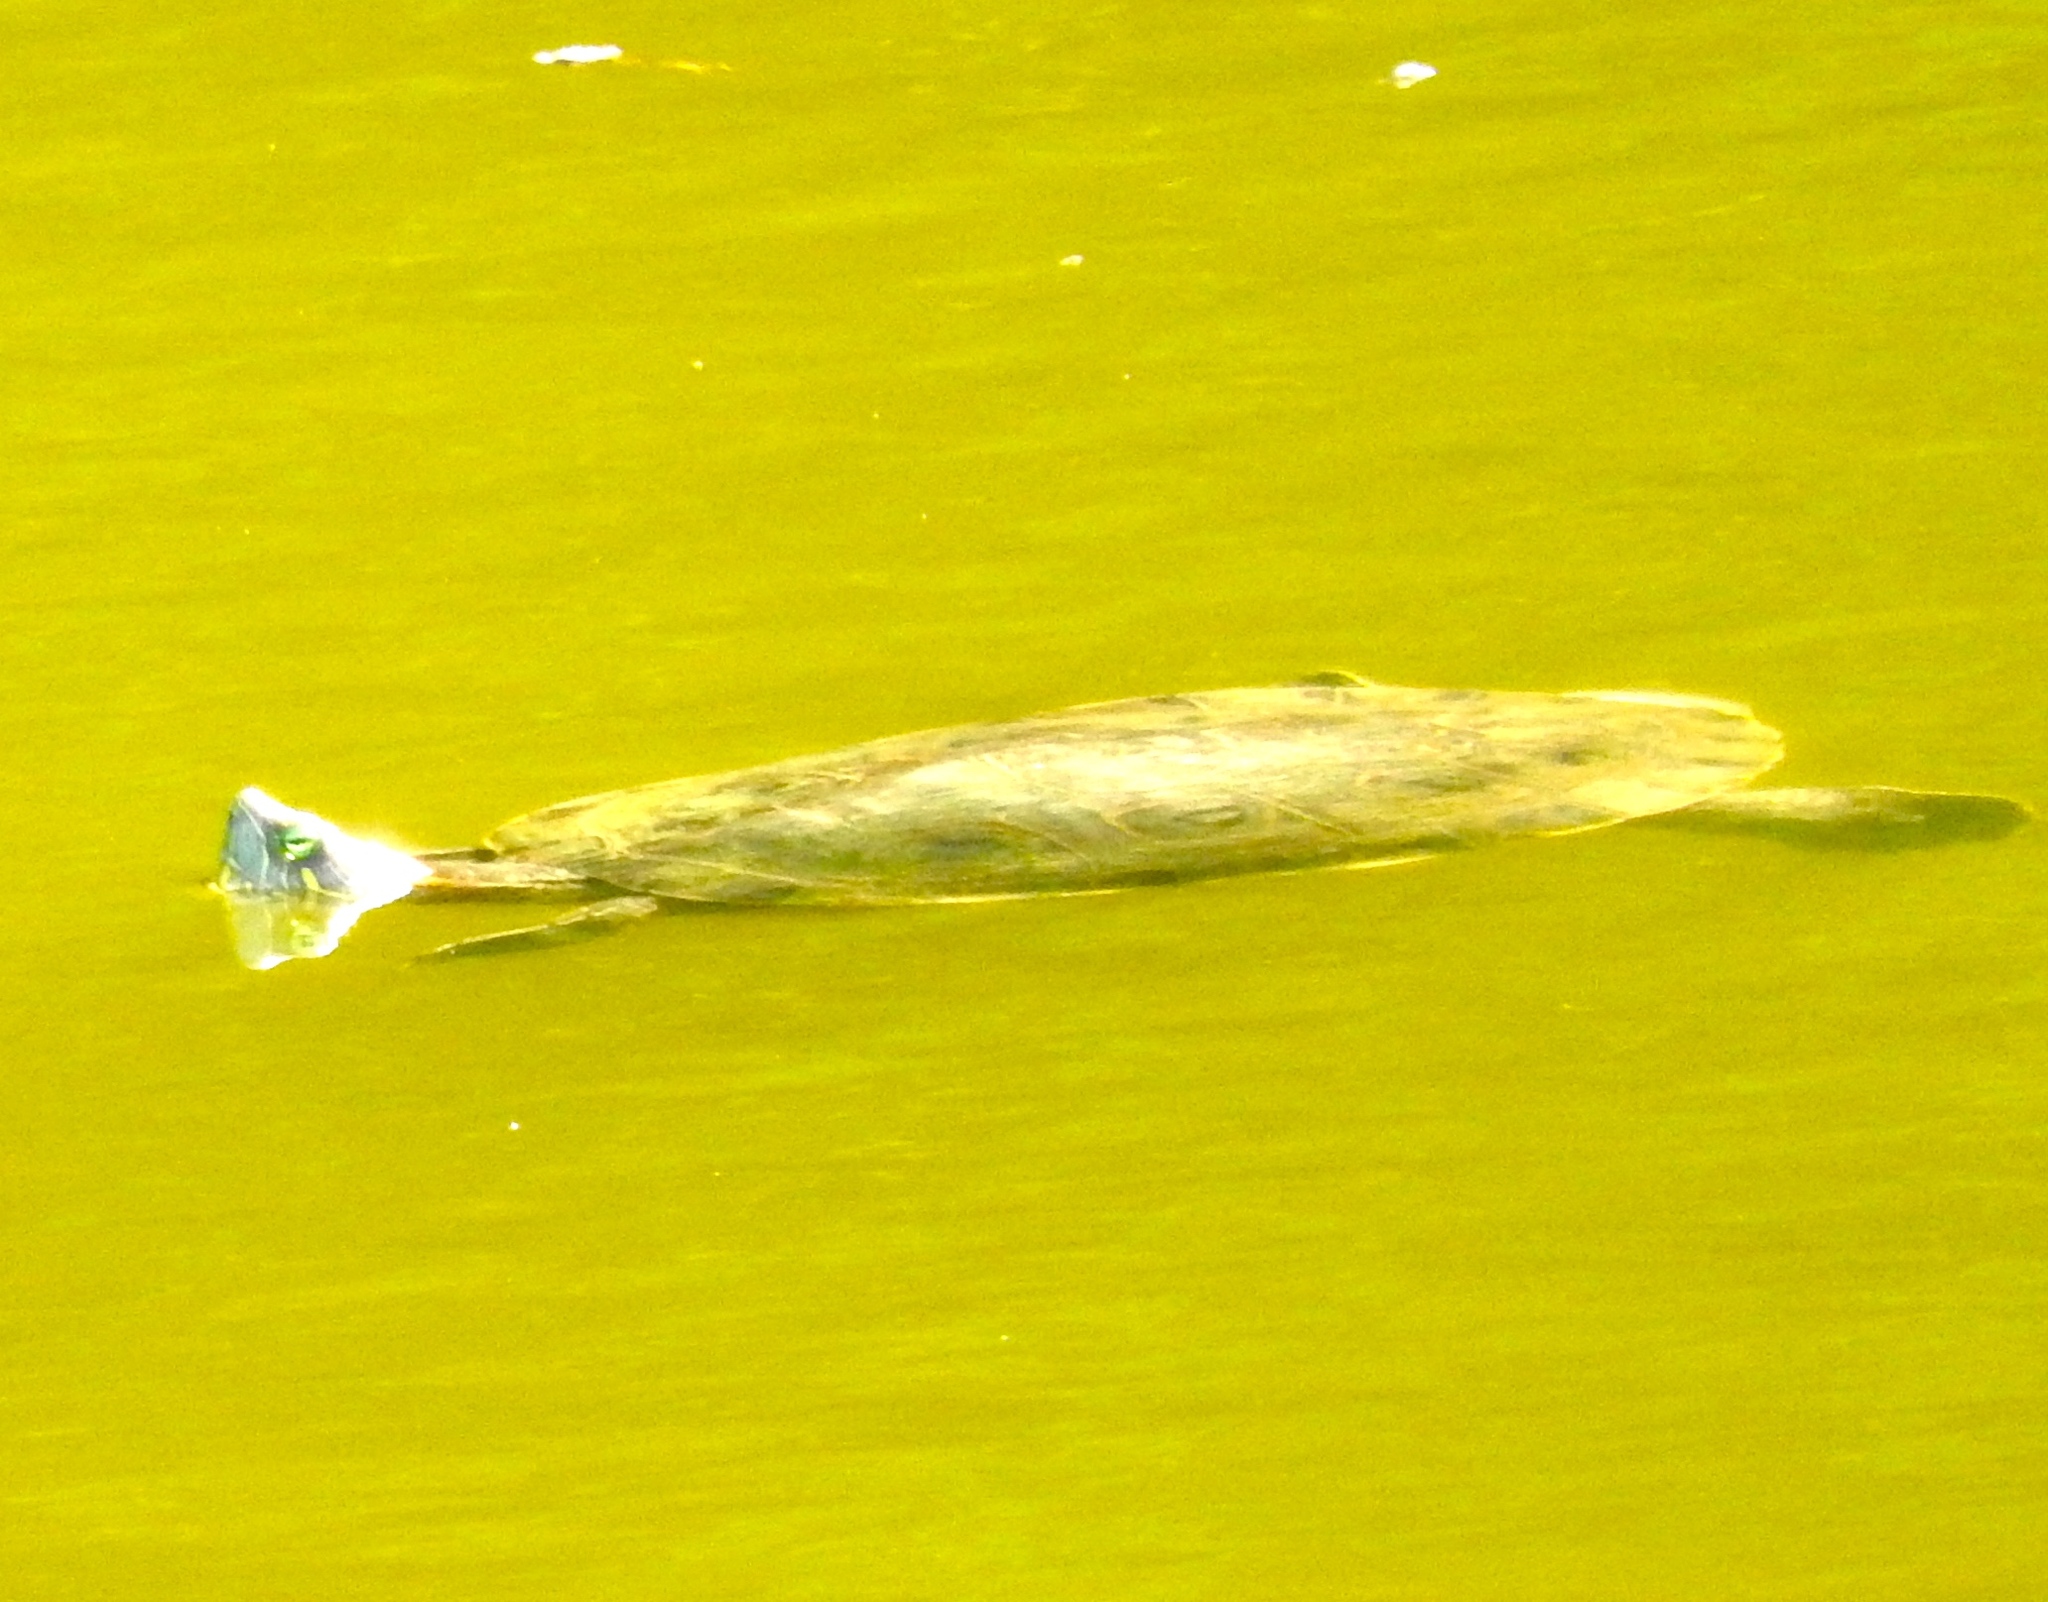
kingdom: Animalia
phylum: Chordata
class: Testudines
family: Emydidae
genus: Trachemys
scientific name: Trachemys ornata
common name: Ornate slider
